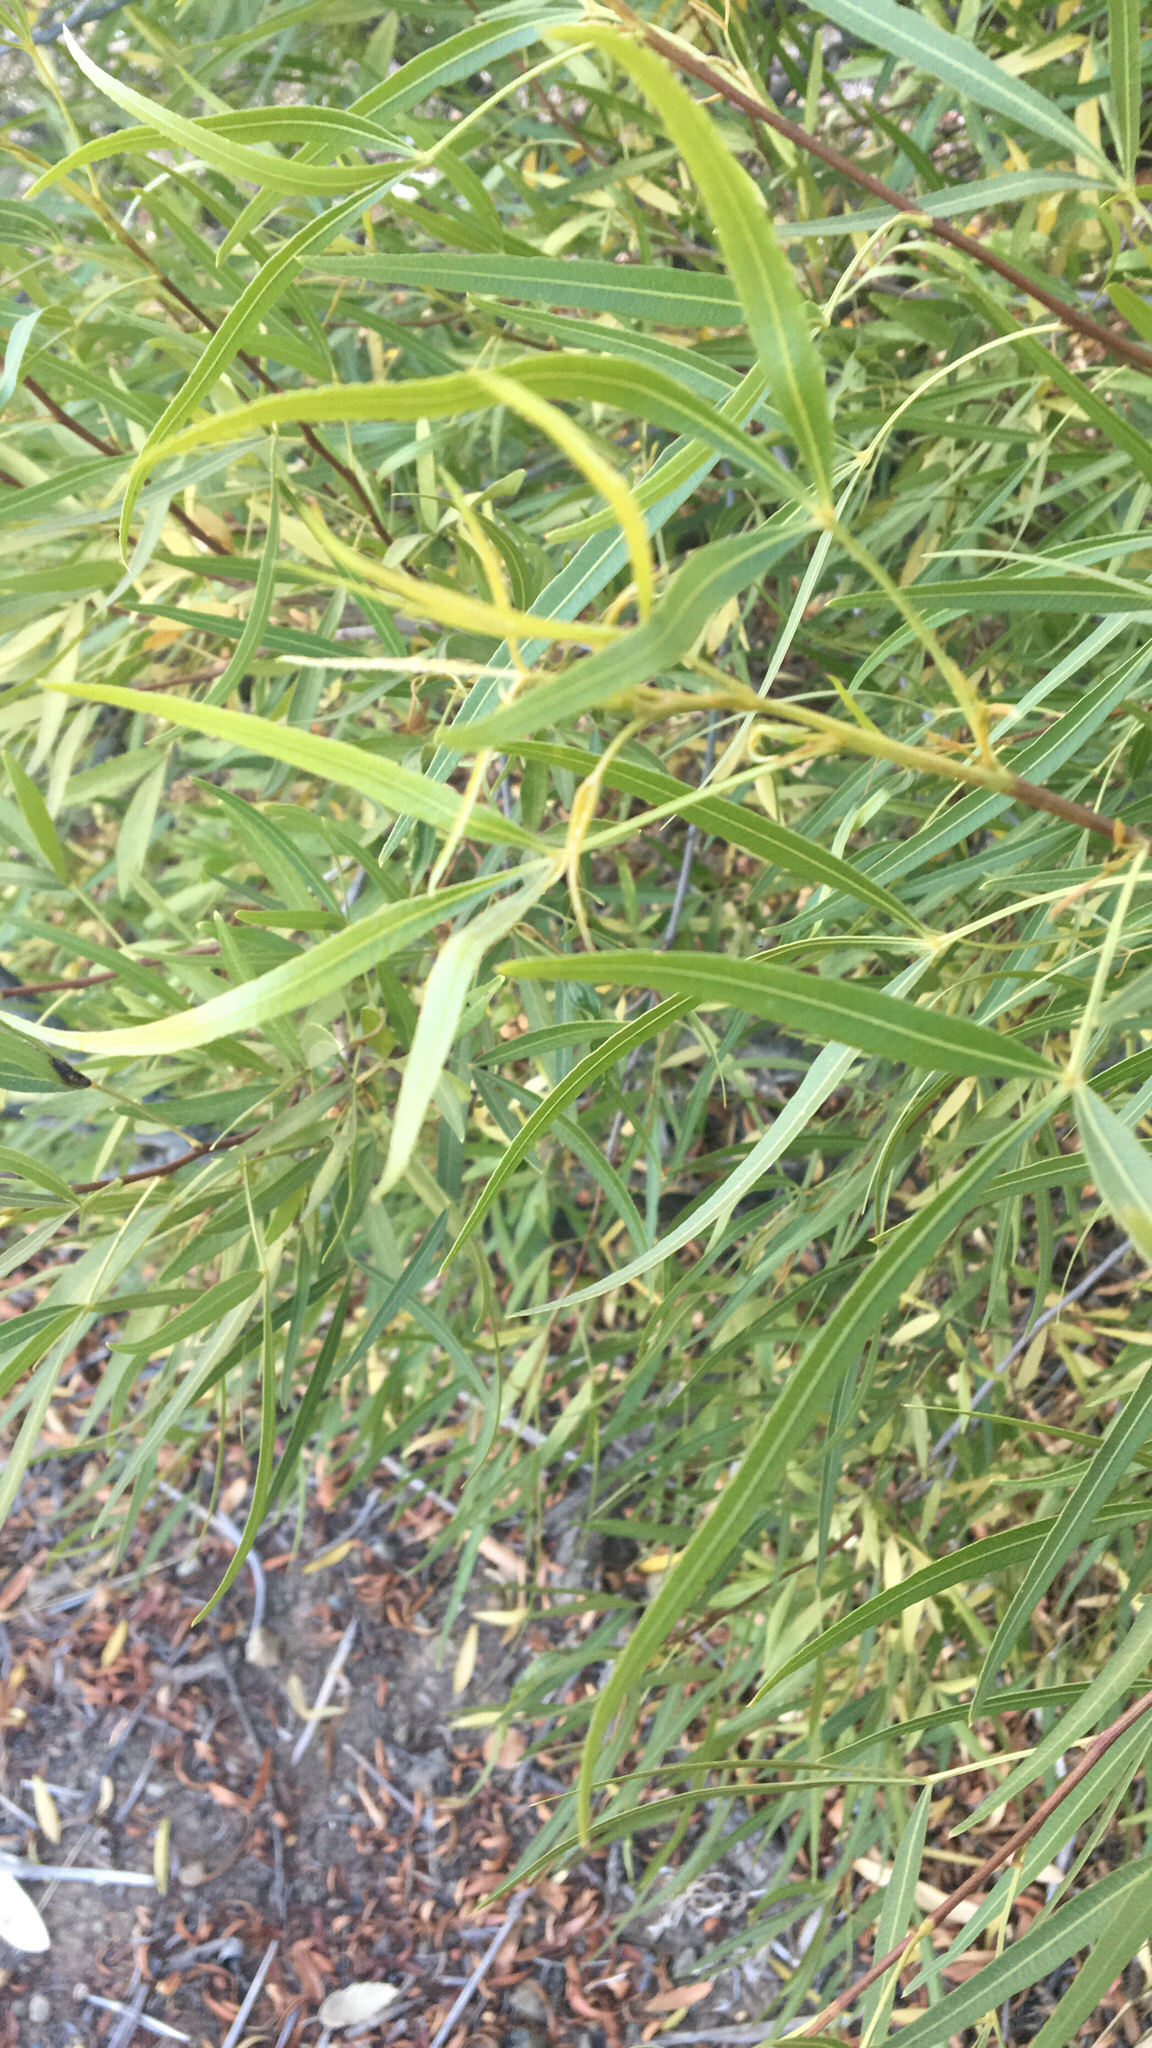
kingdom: Plantae
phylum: Tracheophyta
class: Magnoliopsida
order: Sapindales
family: Anacardiaceae
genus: Searsia
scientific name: Searsia lancea
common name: Cashew
